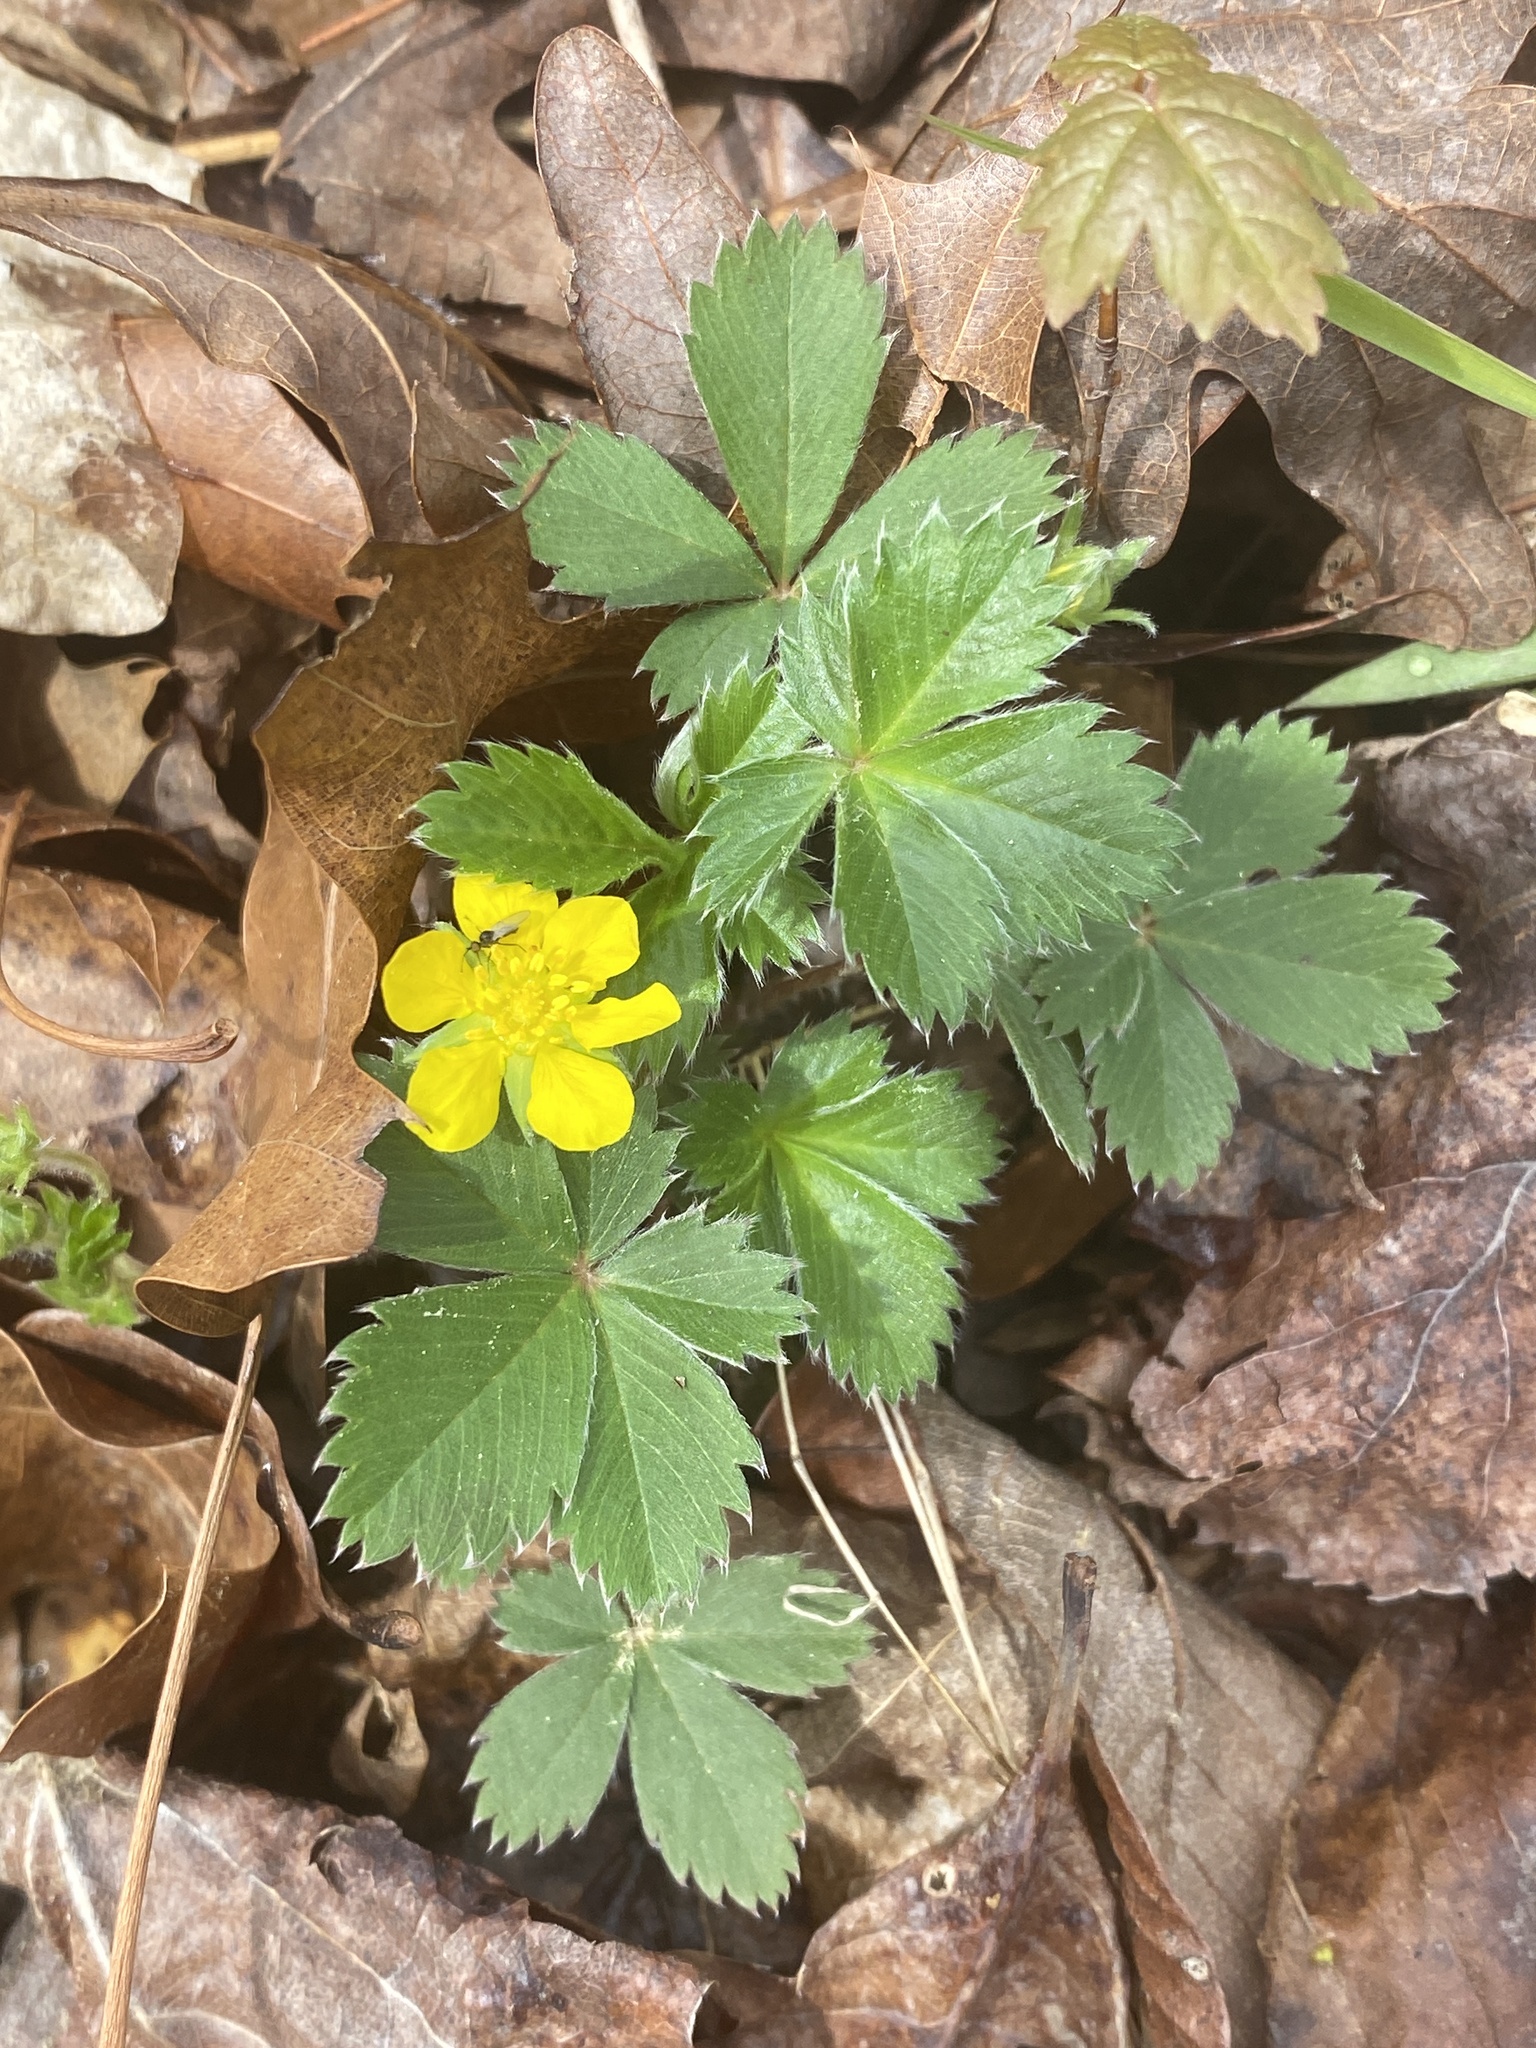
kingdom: Plantae
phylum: Tracheophyta
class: Magnoliopsida
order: Rosales
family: Rosaceae
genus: Potentilla
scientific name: Potentilla canadensis
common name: Canada cinquefoil
